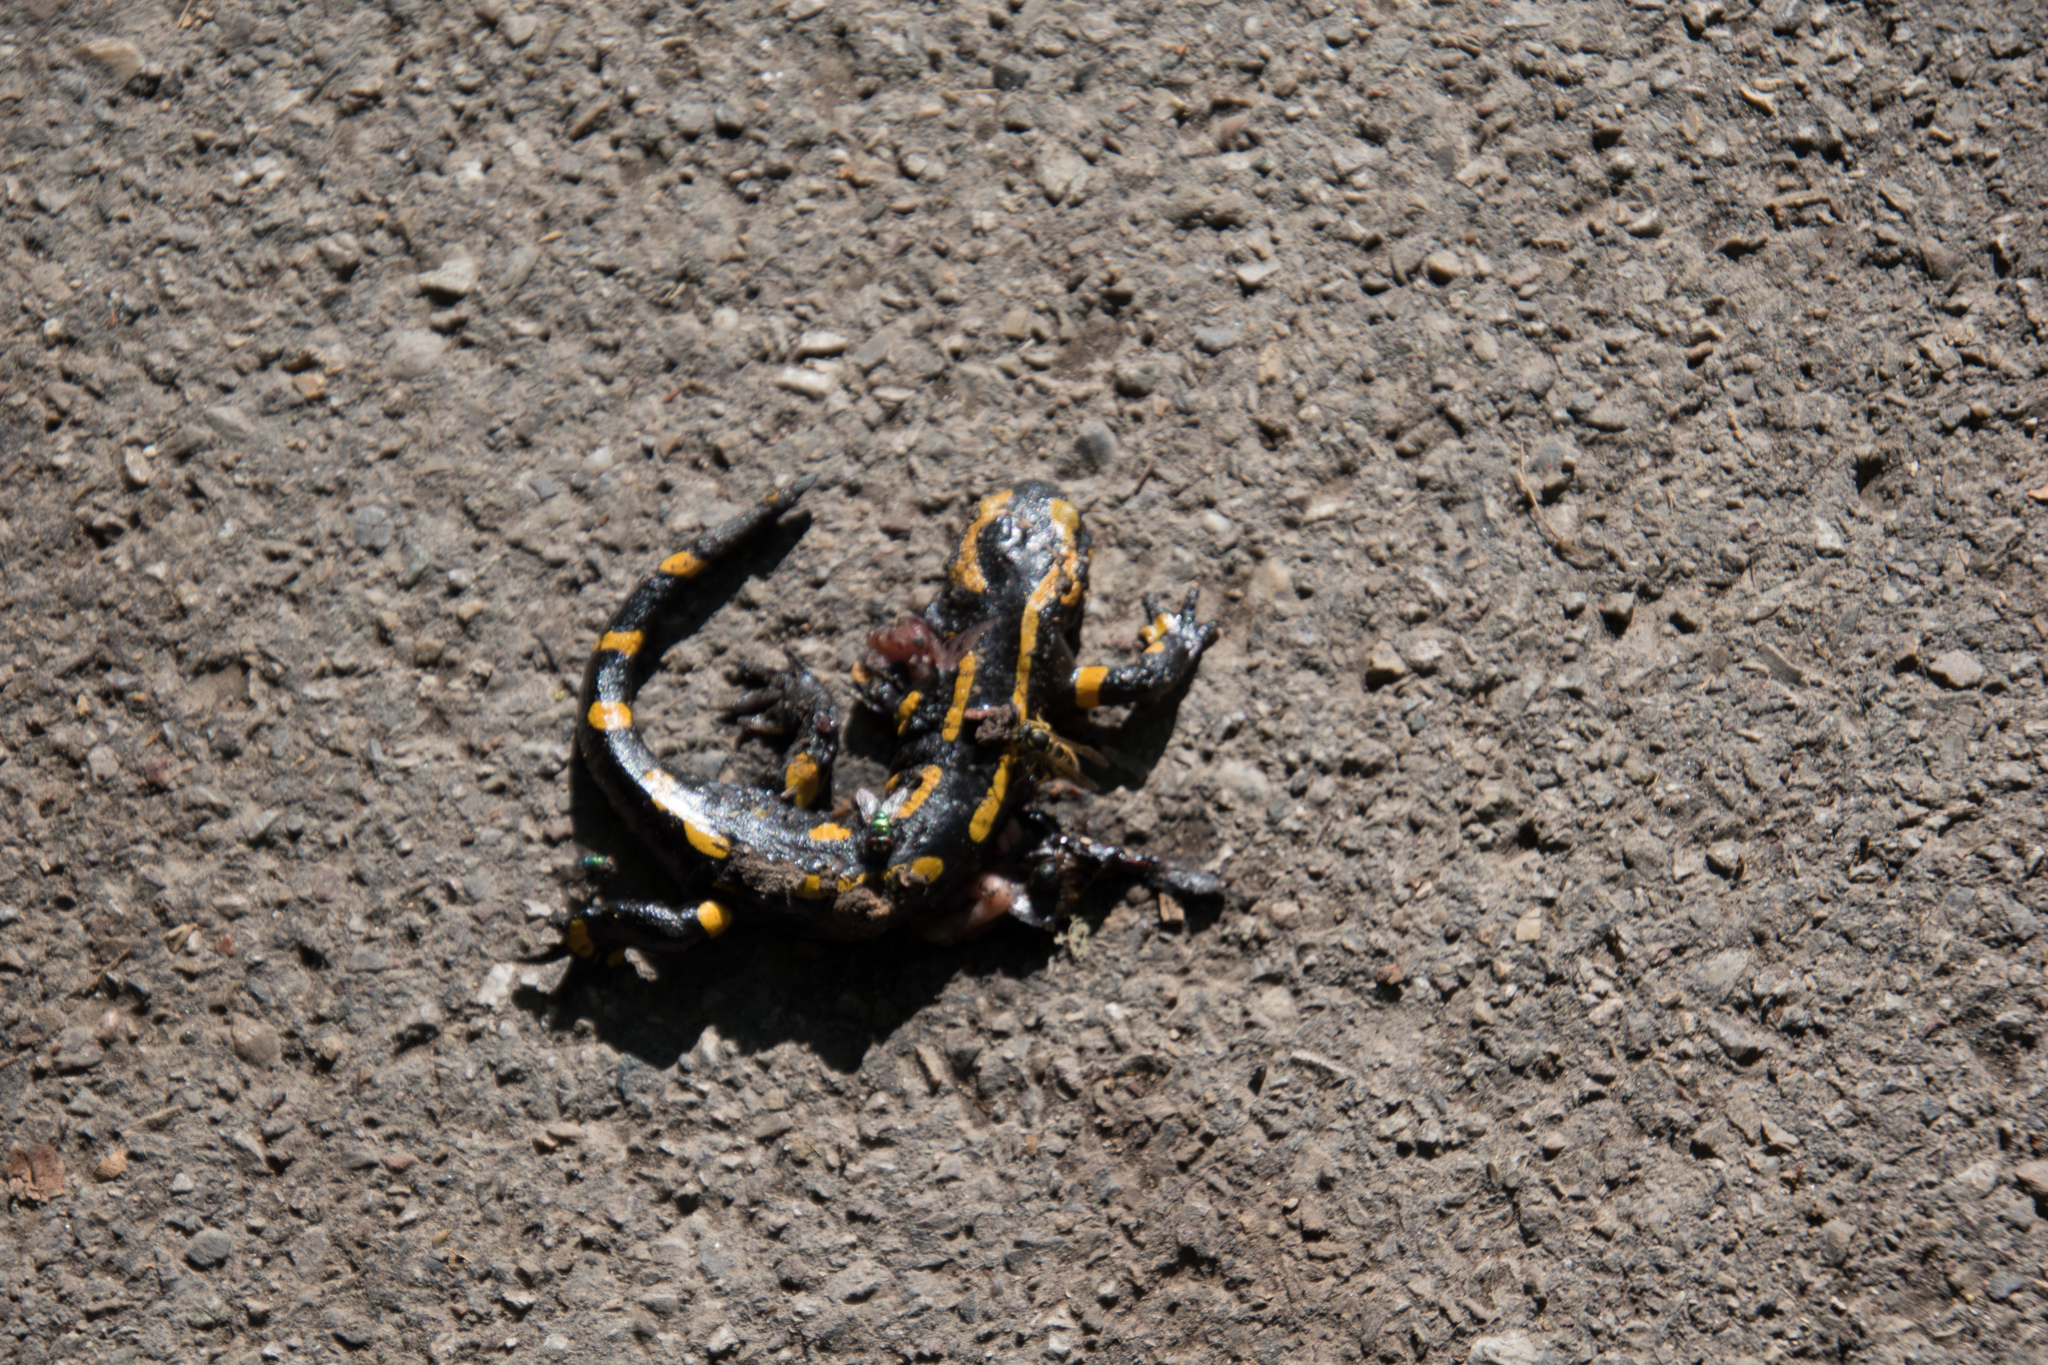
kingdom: Animalia
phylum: Chordata
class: Amphibia
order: Caudata
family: Salamandridae
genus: Salamandra
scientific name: Salamandra salamandra
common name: Fire salamander
